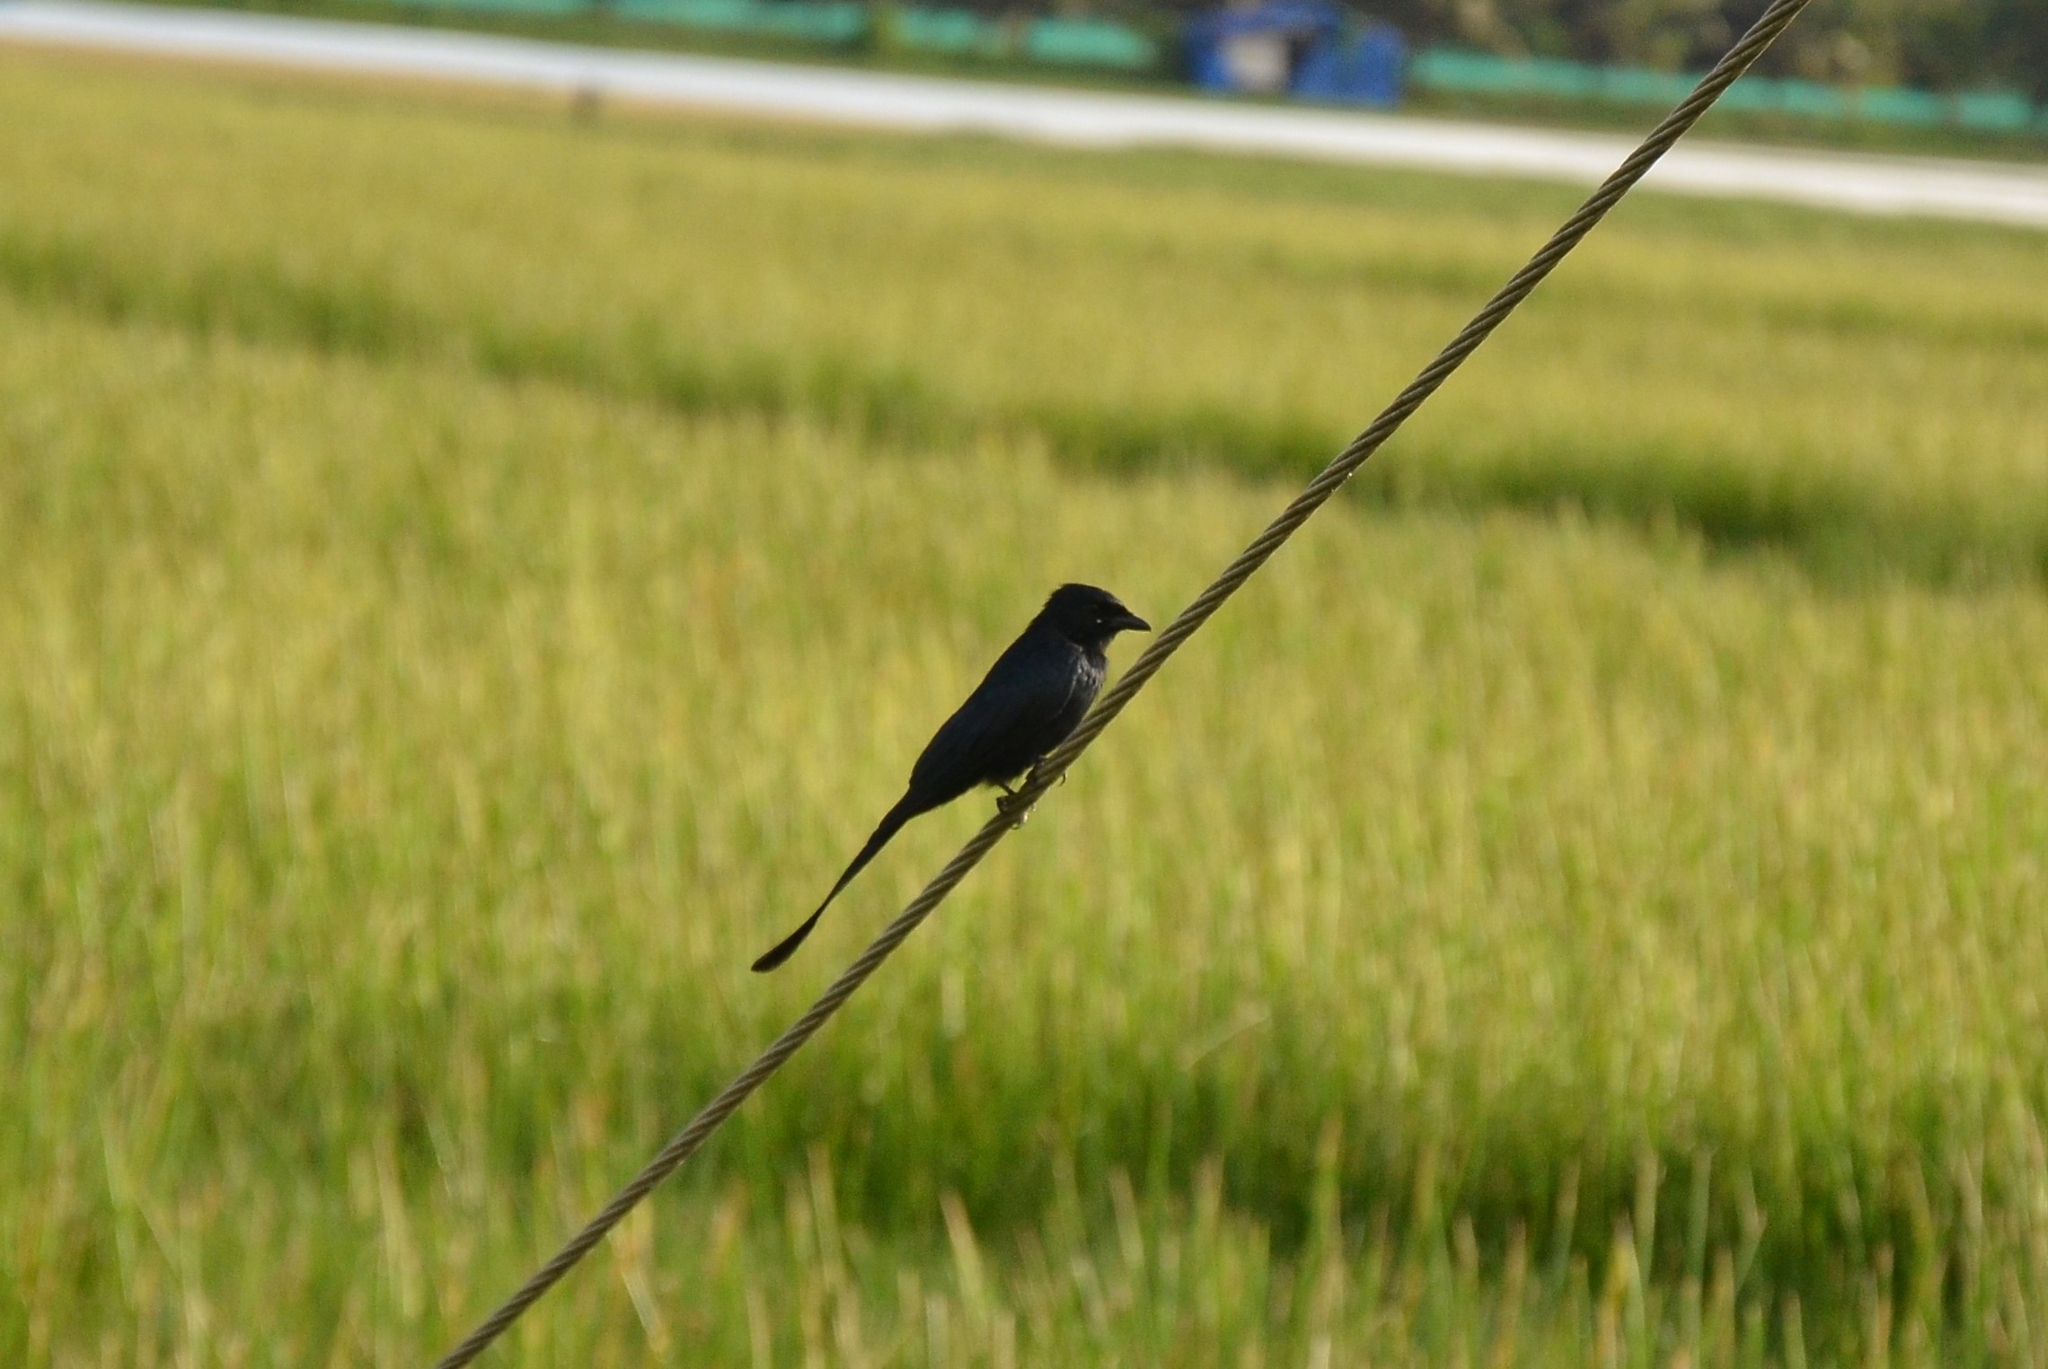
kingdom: Animalia
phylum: Chordata
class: Aves
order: Passeriformes
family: Dicruridae
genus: Dicrurus
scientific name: Dicrurus macrocercus
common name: Black drongo
